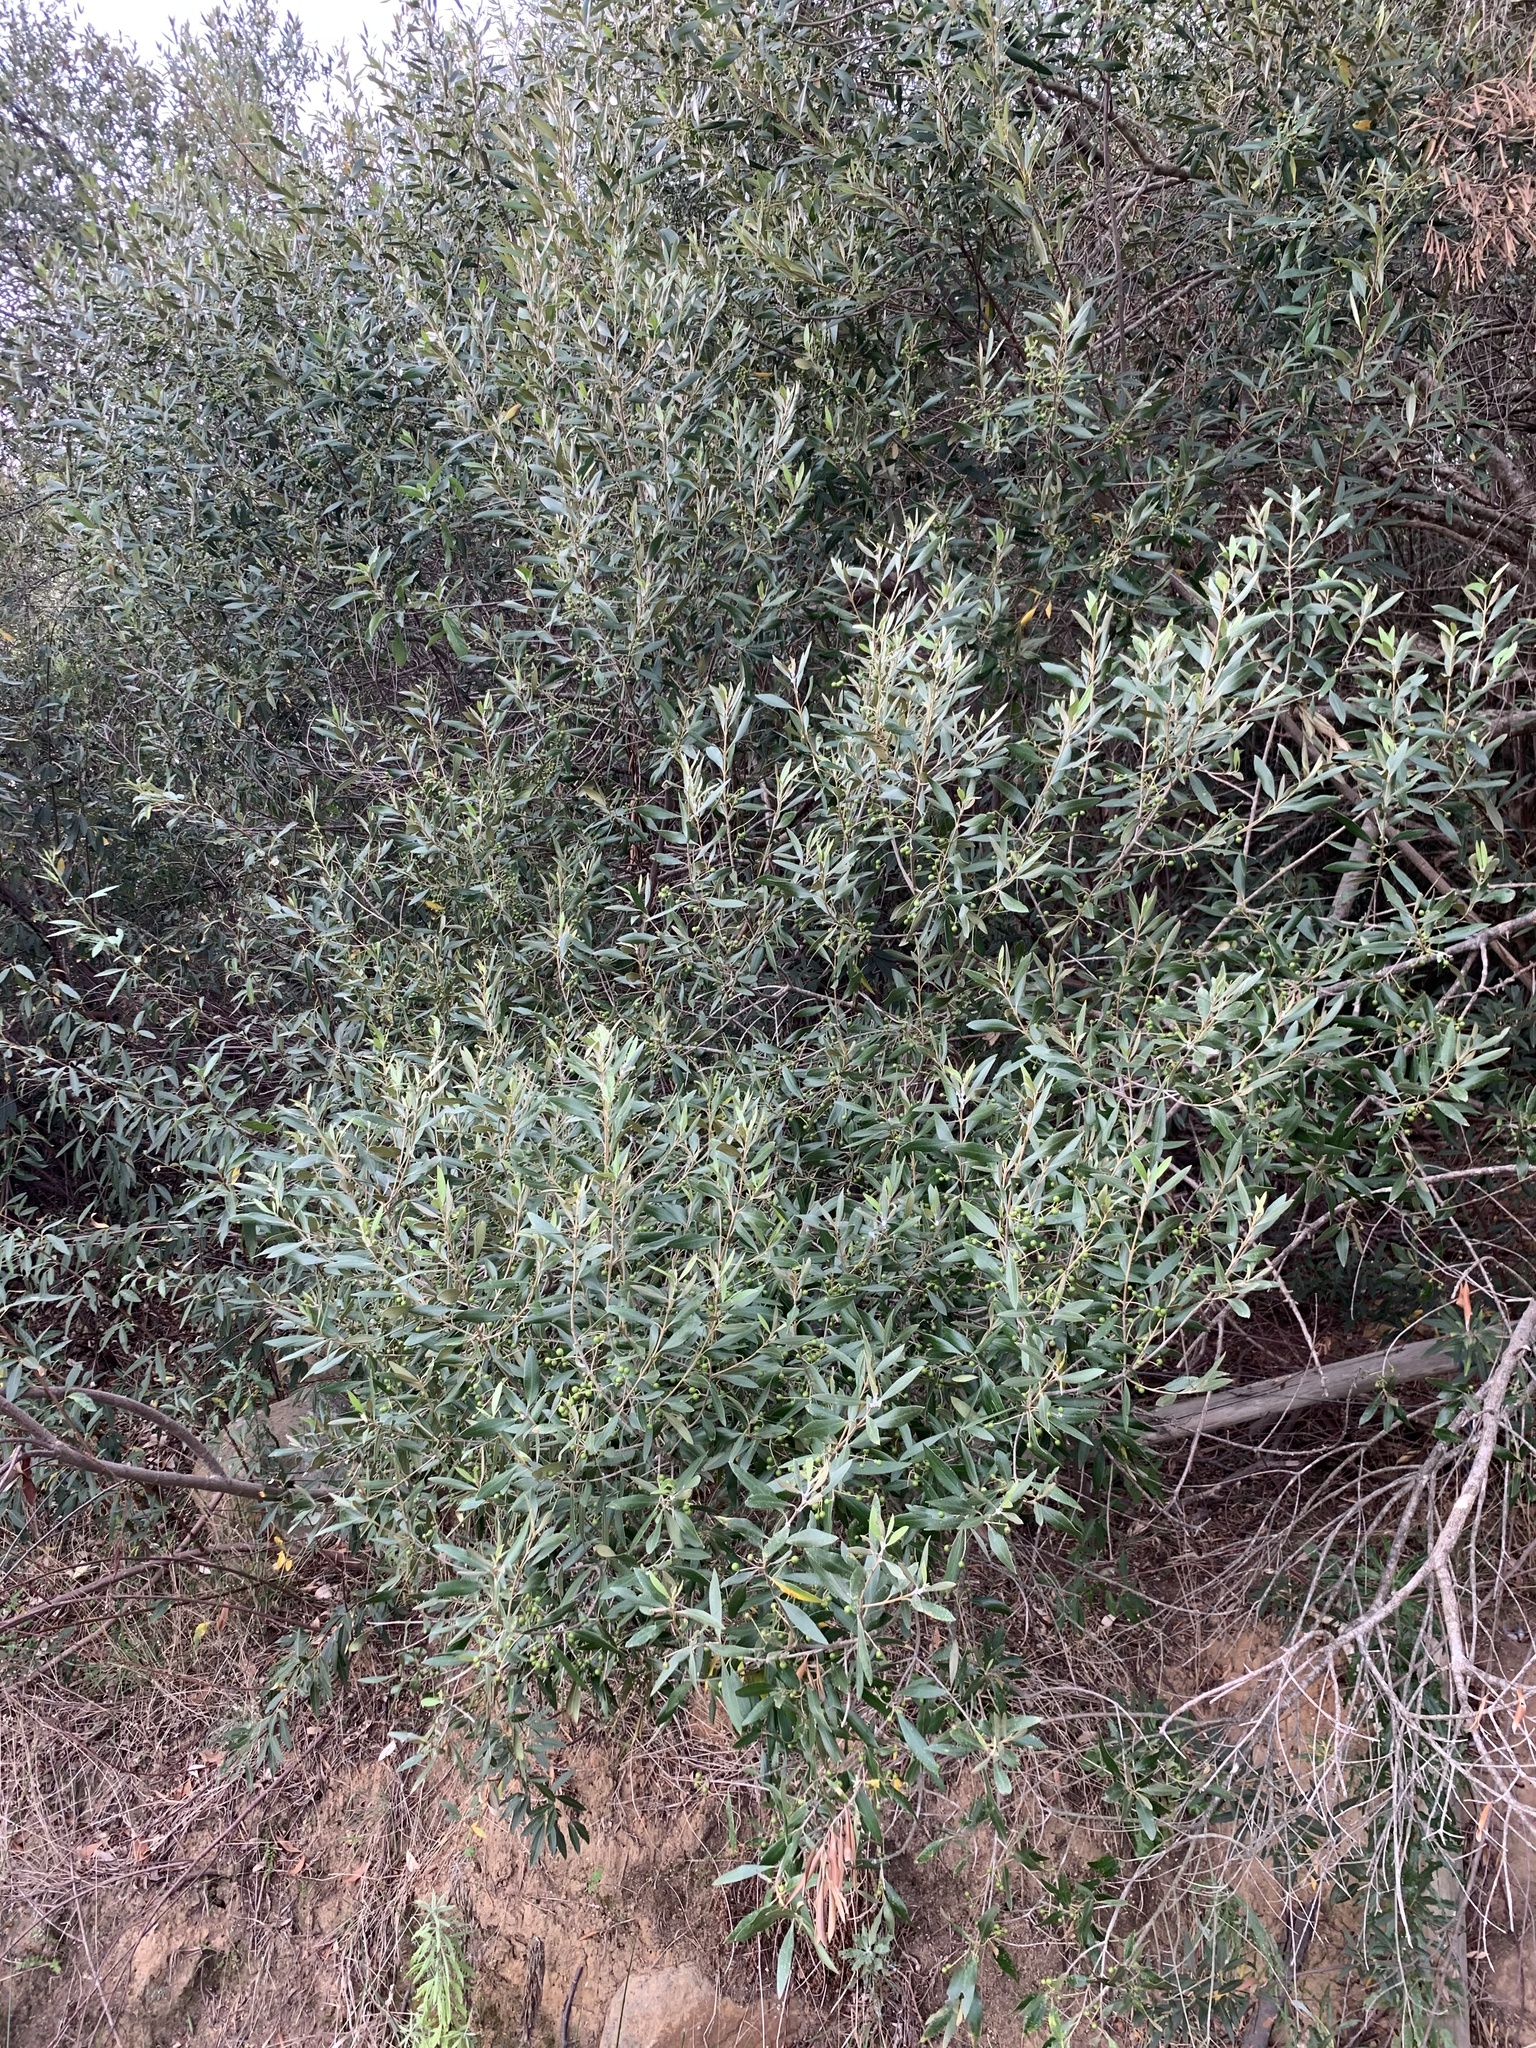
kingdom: Plantae
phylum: Tracheophyta
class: Magnoliopsida
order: Lamiales
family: Oleaceae
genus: Olea
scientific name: Olea europaea
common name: Olive
